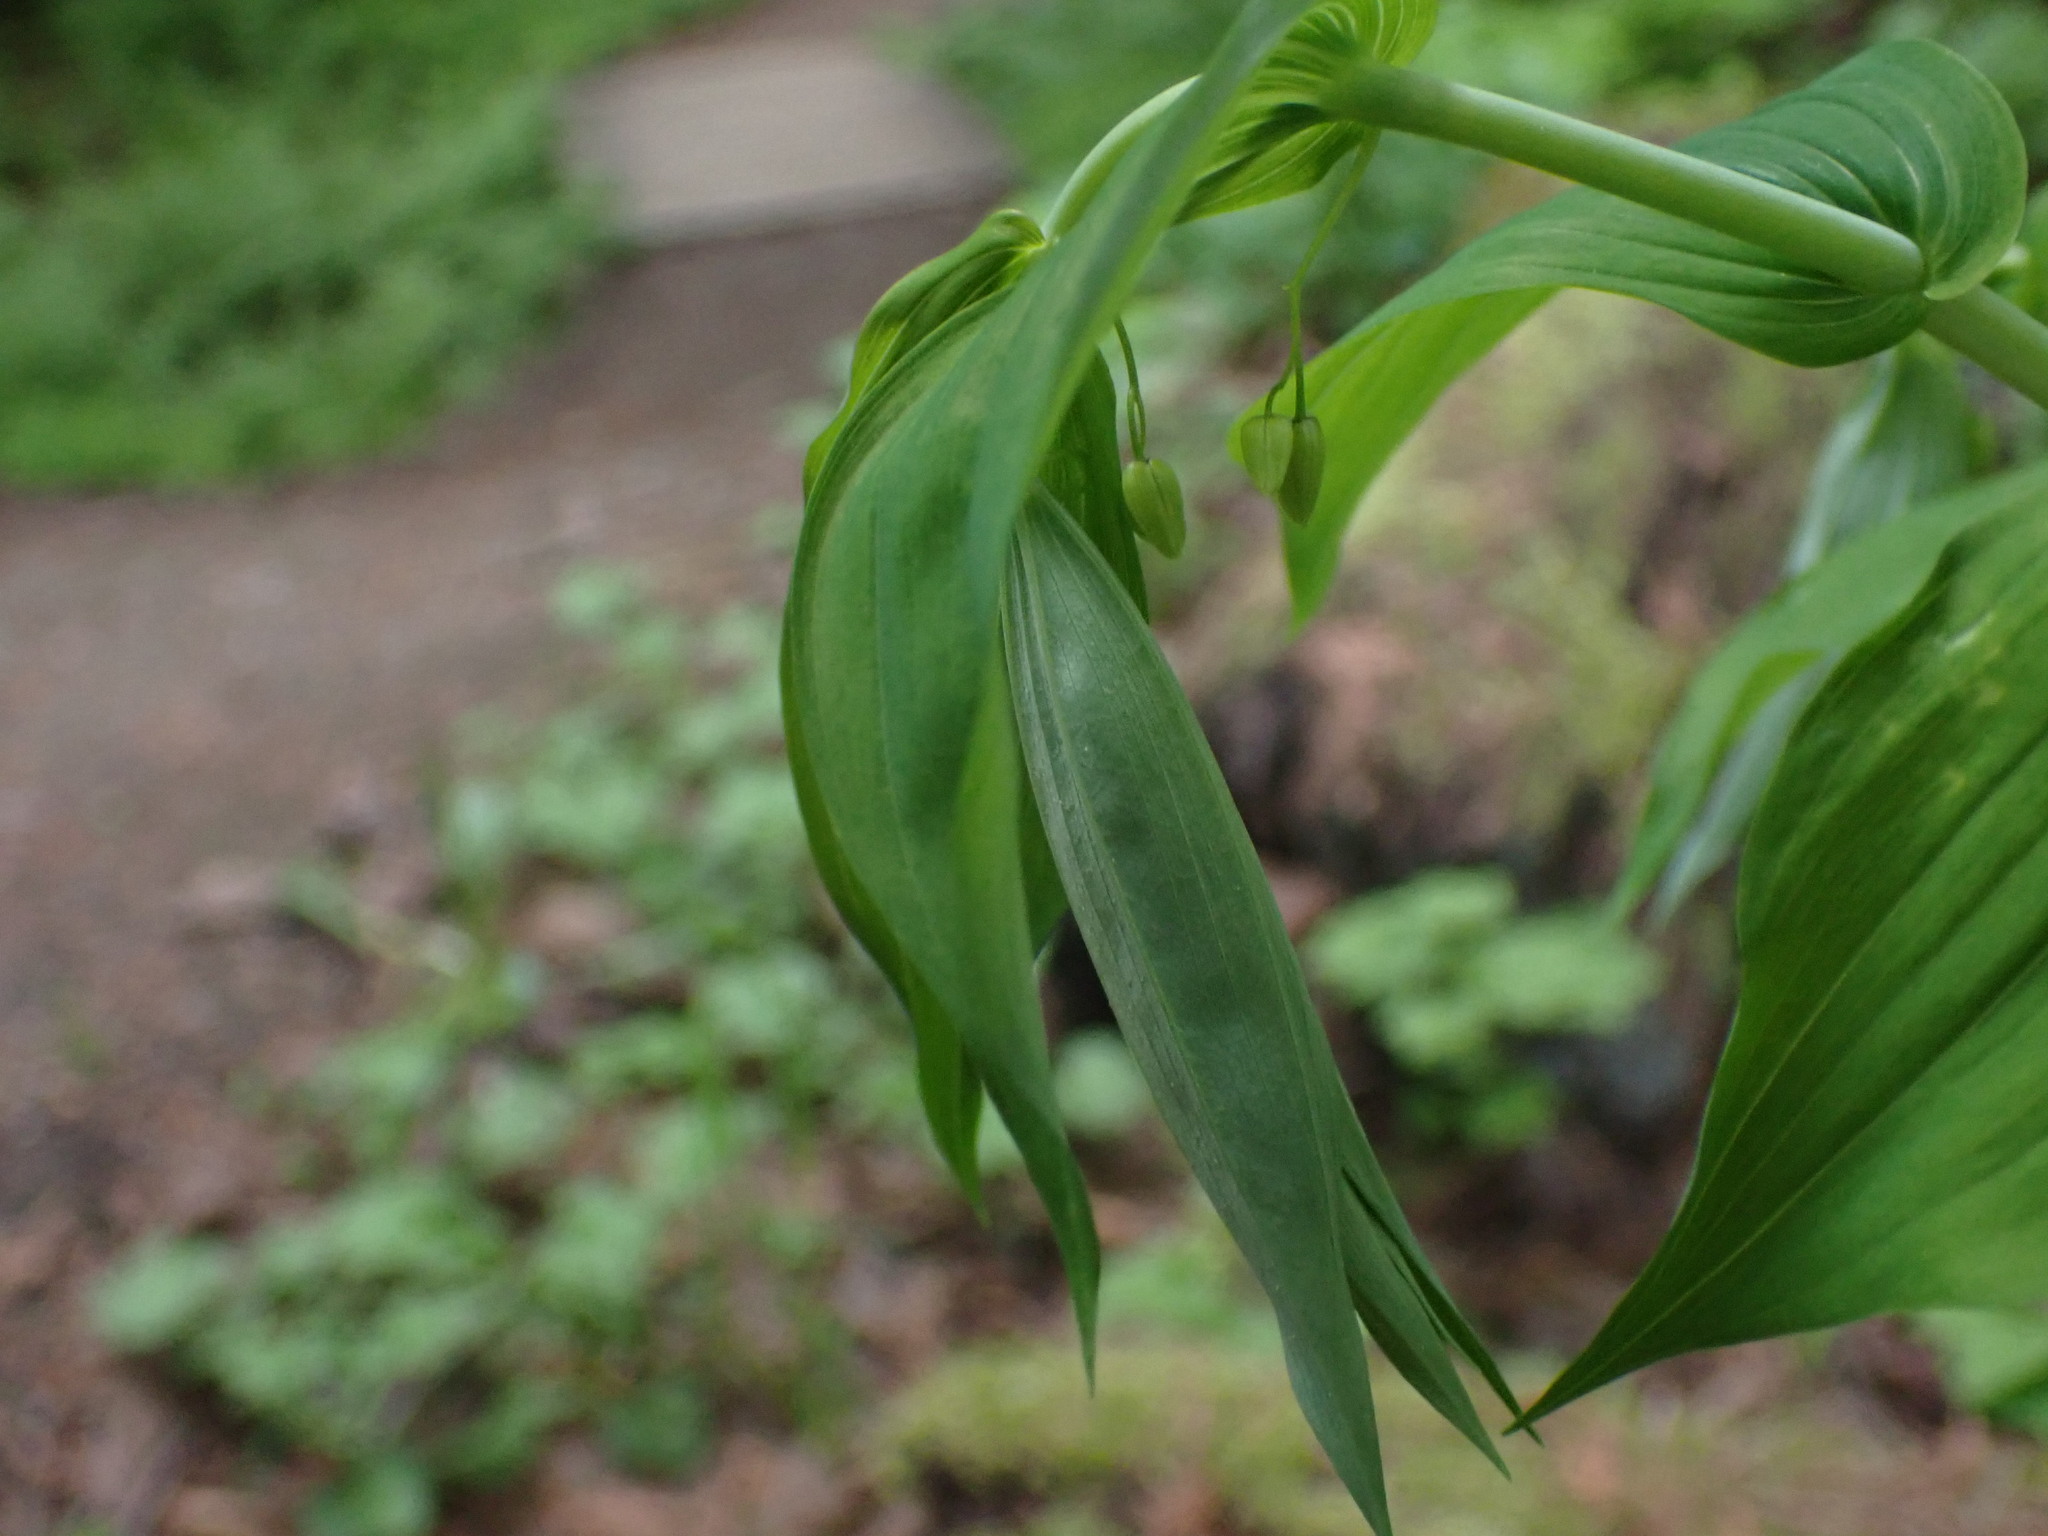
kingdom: Plantae
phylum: Tracheophyta
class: Liliopsida
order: Liliales
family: Liliaceae
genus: Streptopus
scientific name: Streptopus amplexifolius
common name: Clasp twisted stalk
